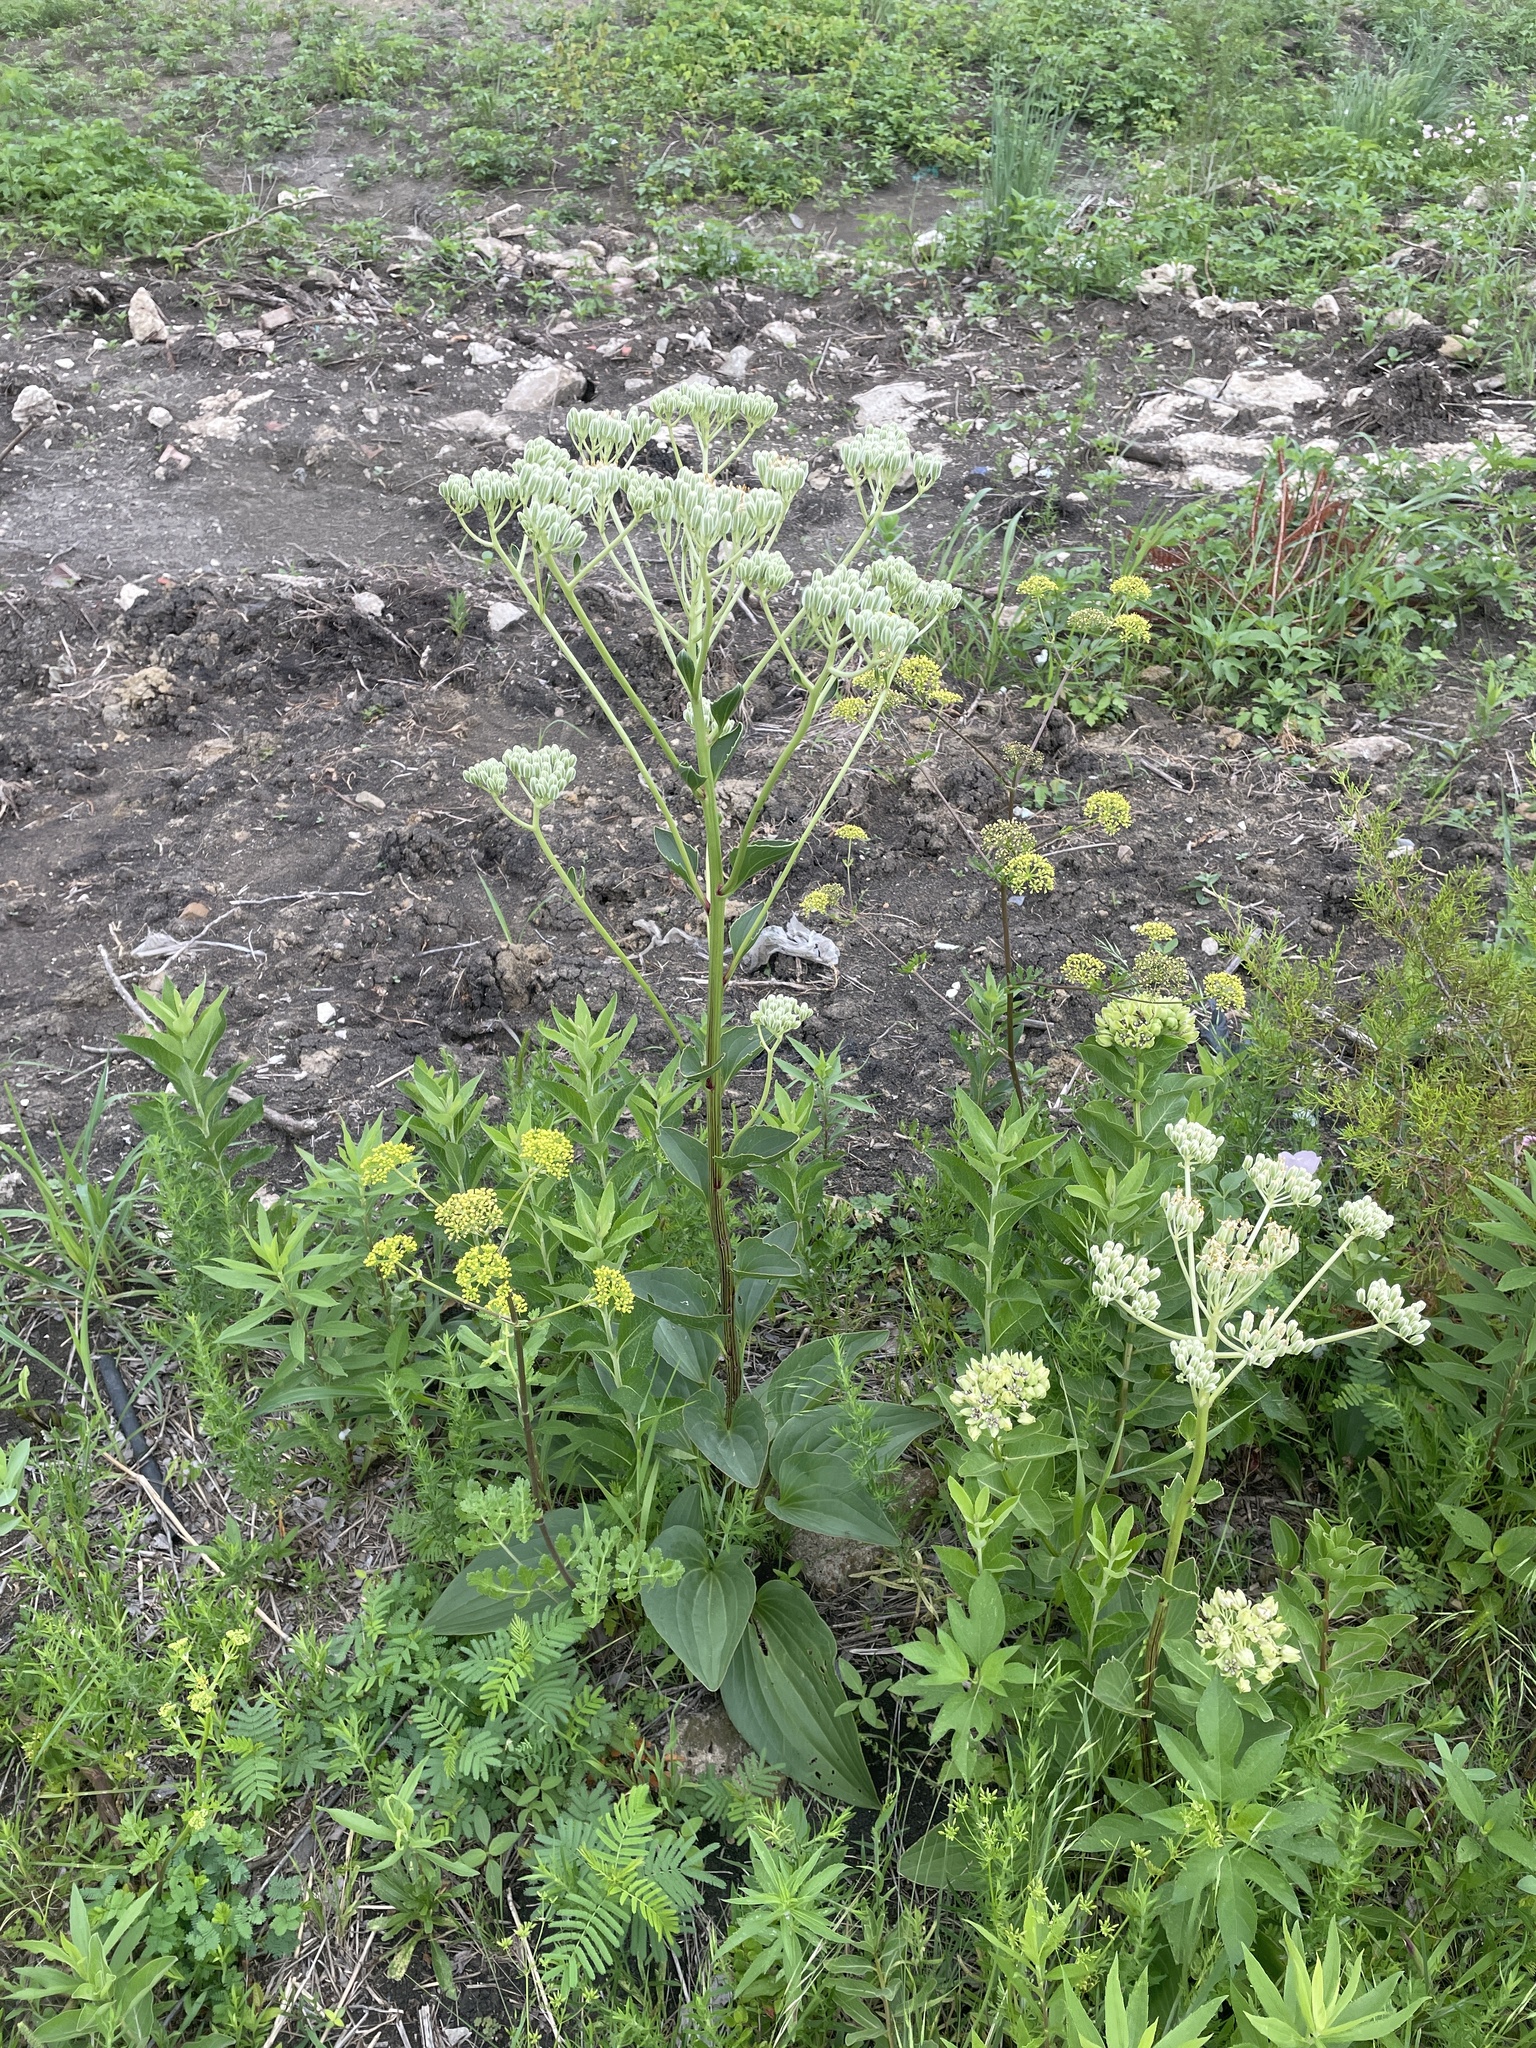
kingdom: Plantae
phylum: Tracheophyta
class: Magnoliopsida
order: Asterales
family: Asteraceae
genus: Arnoglossum
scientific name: Arnoglossum plantagineum
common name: Groove-stemmed indian-plantain
